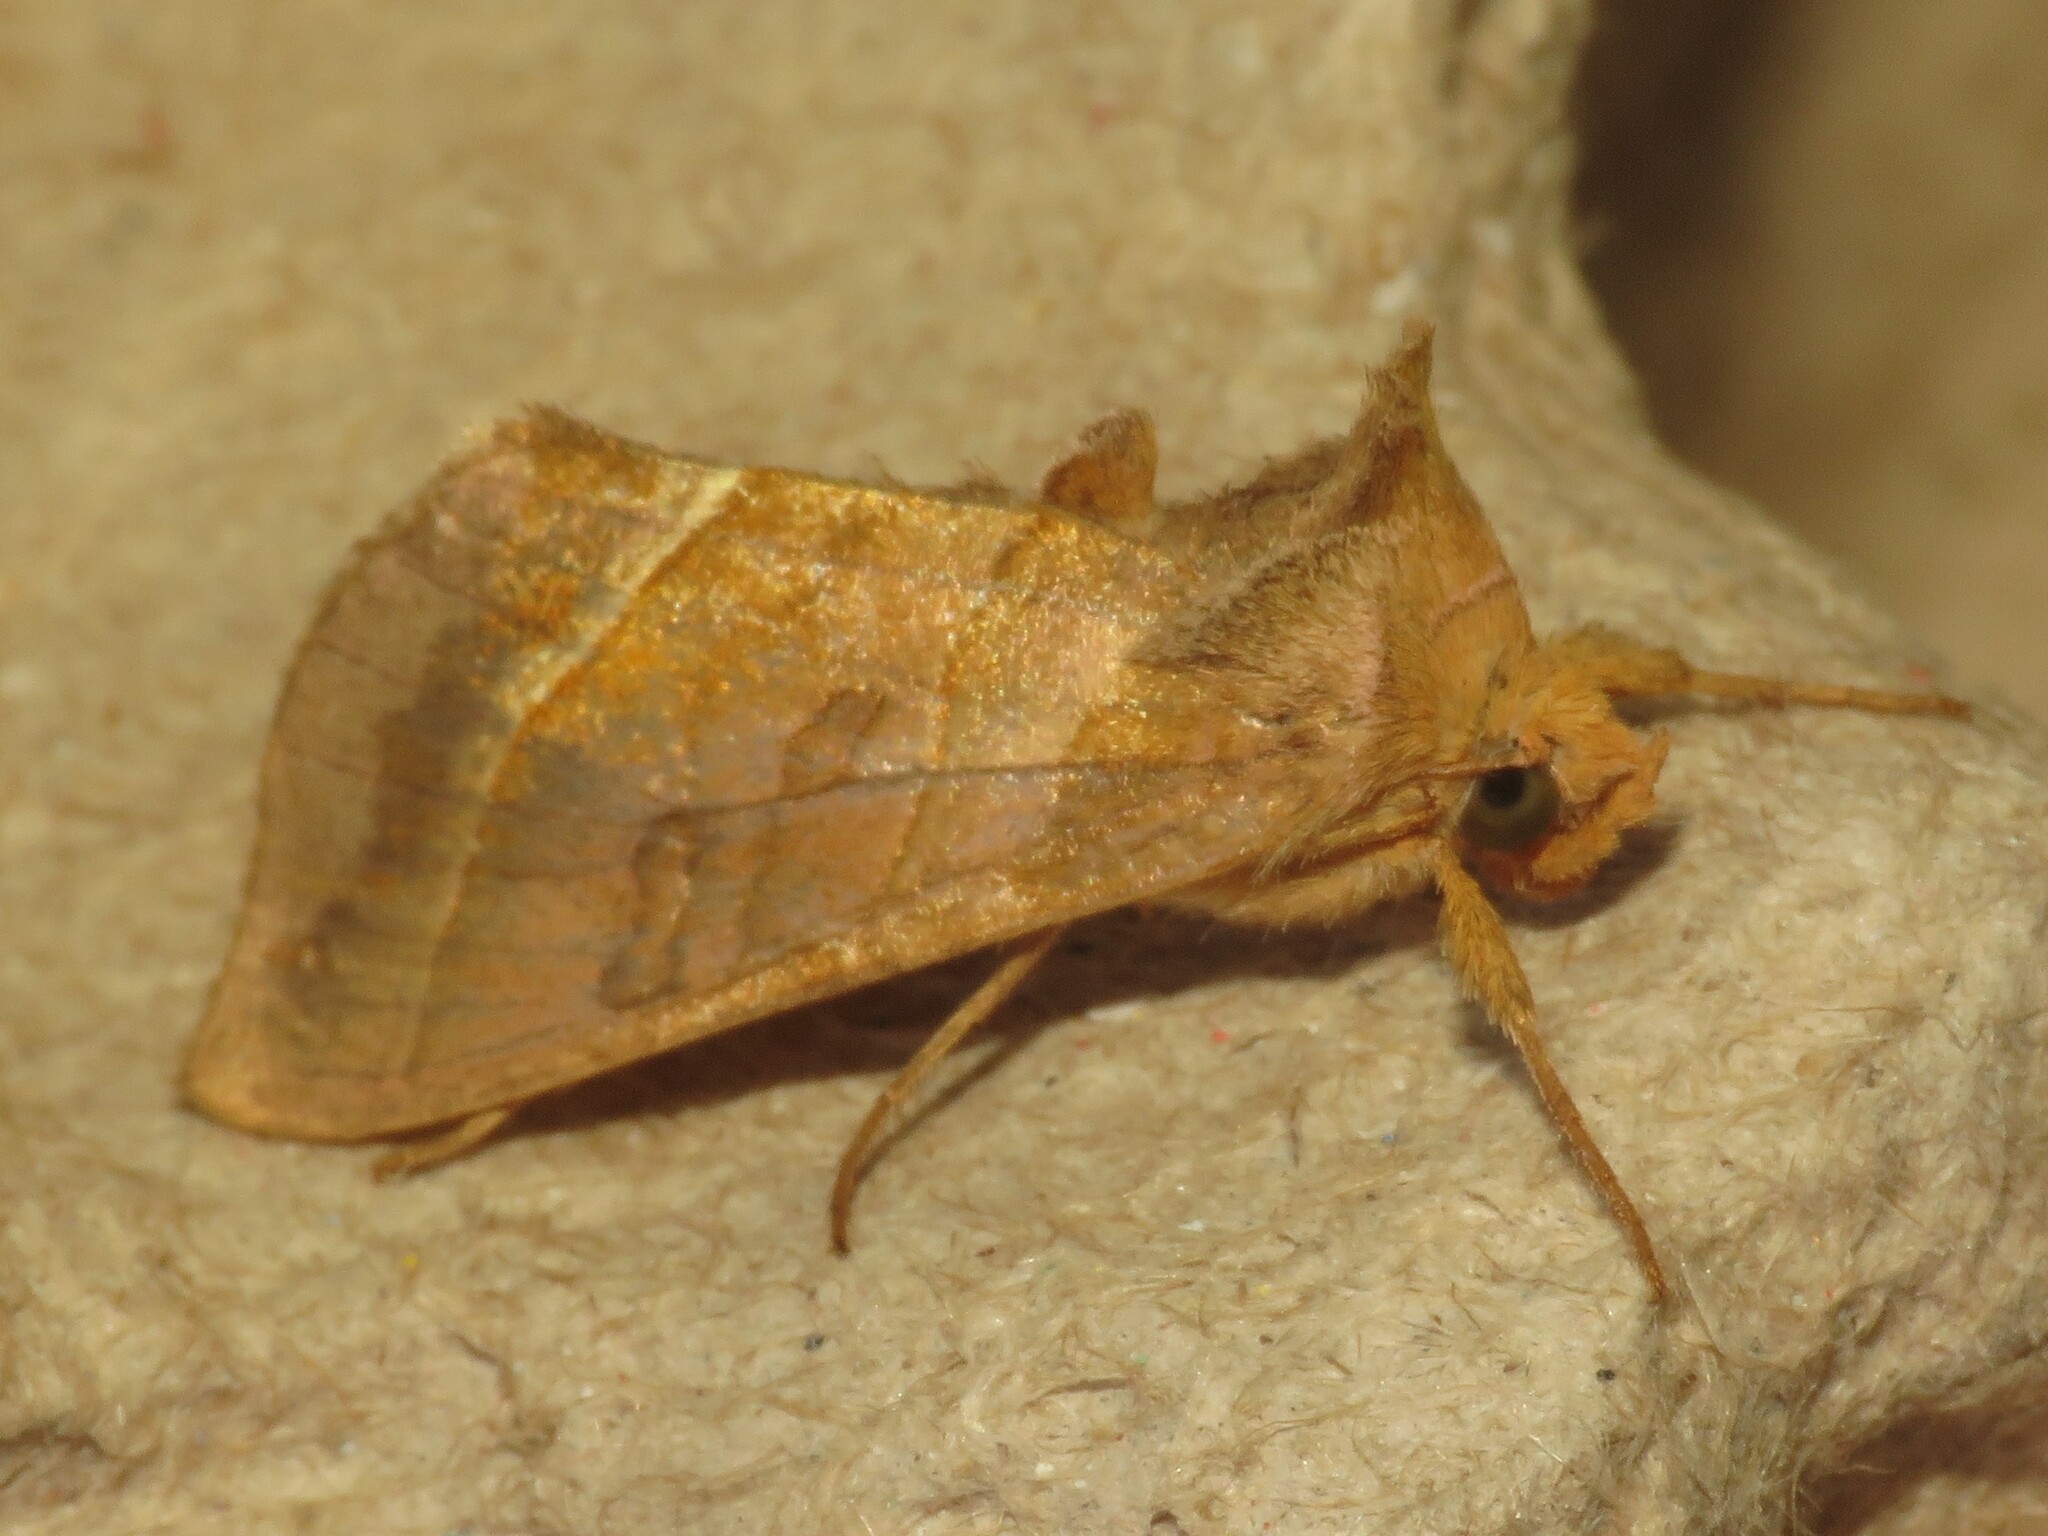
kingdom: Animalia
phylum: Arthropoda
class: Insecta
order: Lepidoptera
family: Noctuidae
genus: Diachrysia
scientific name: Diachrysia aereoides
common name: Dark-spotted looper moth
